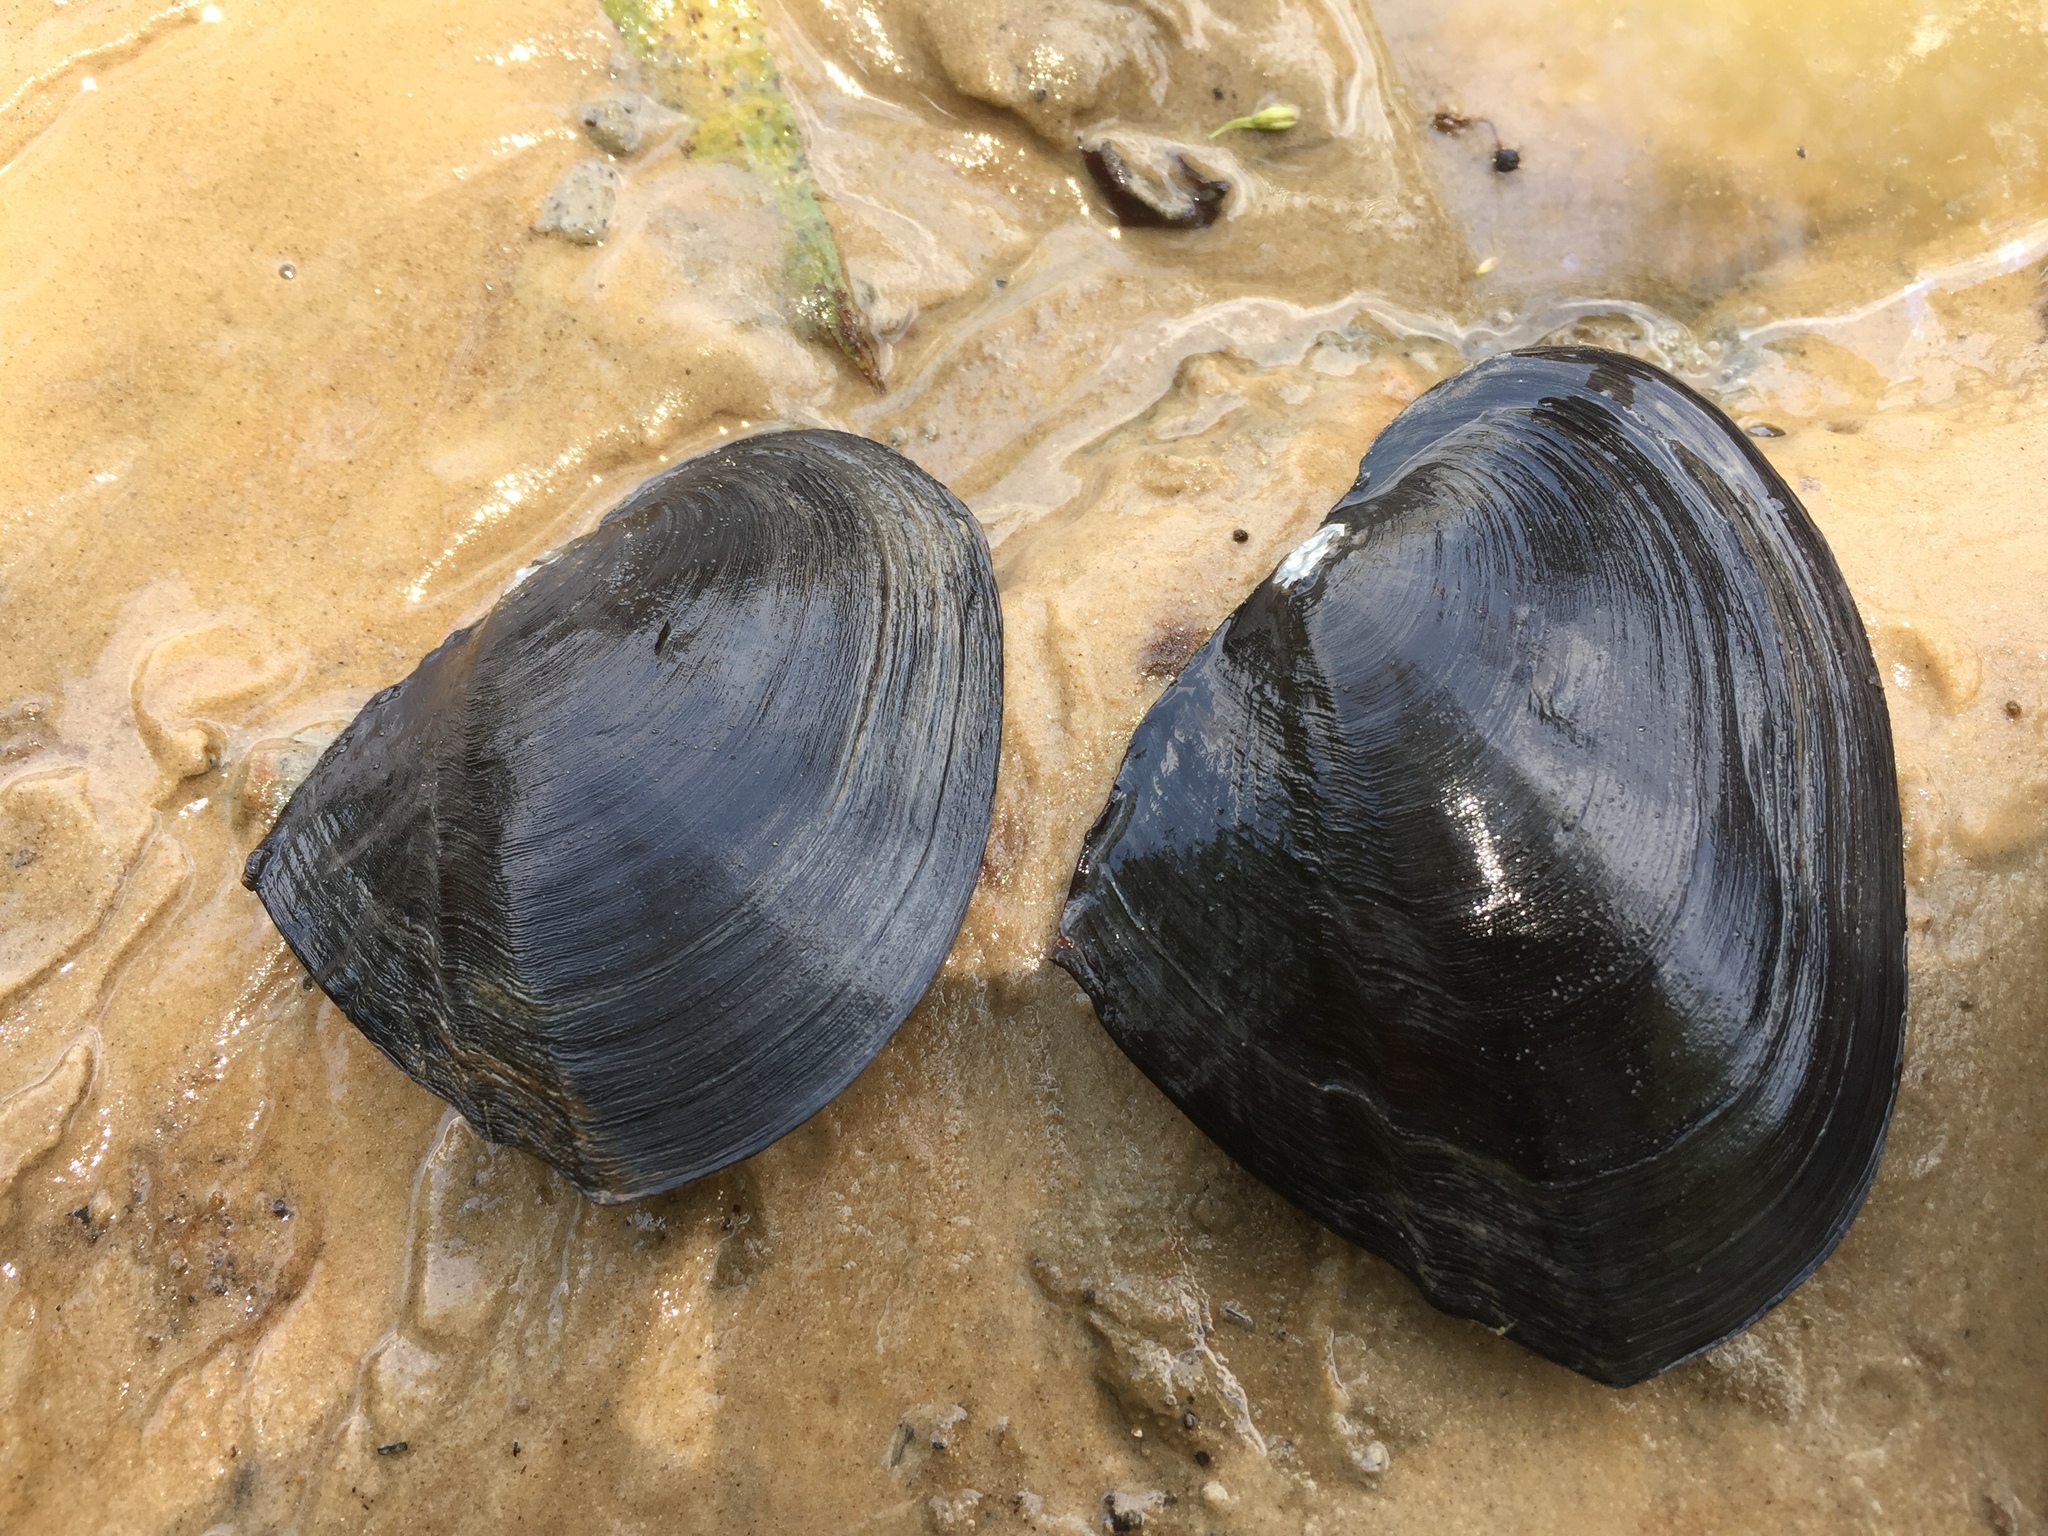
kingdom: Animalia
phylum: Mollusca
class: Bivalvia
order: Unionida
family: Unionidae
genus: Lasmigona
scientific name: Lasmigona complanata
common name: White heelsplitter
